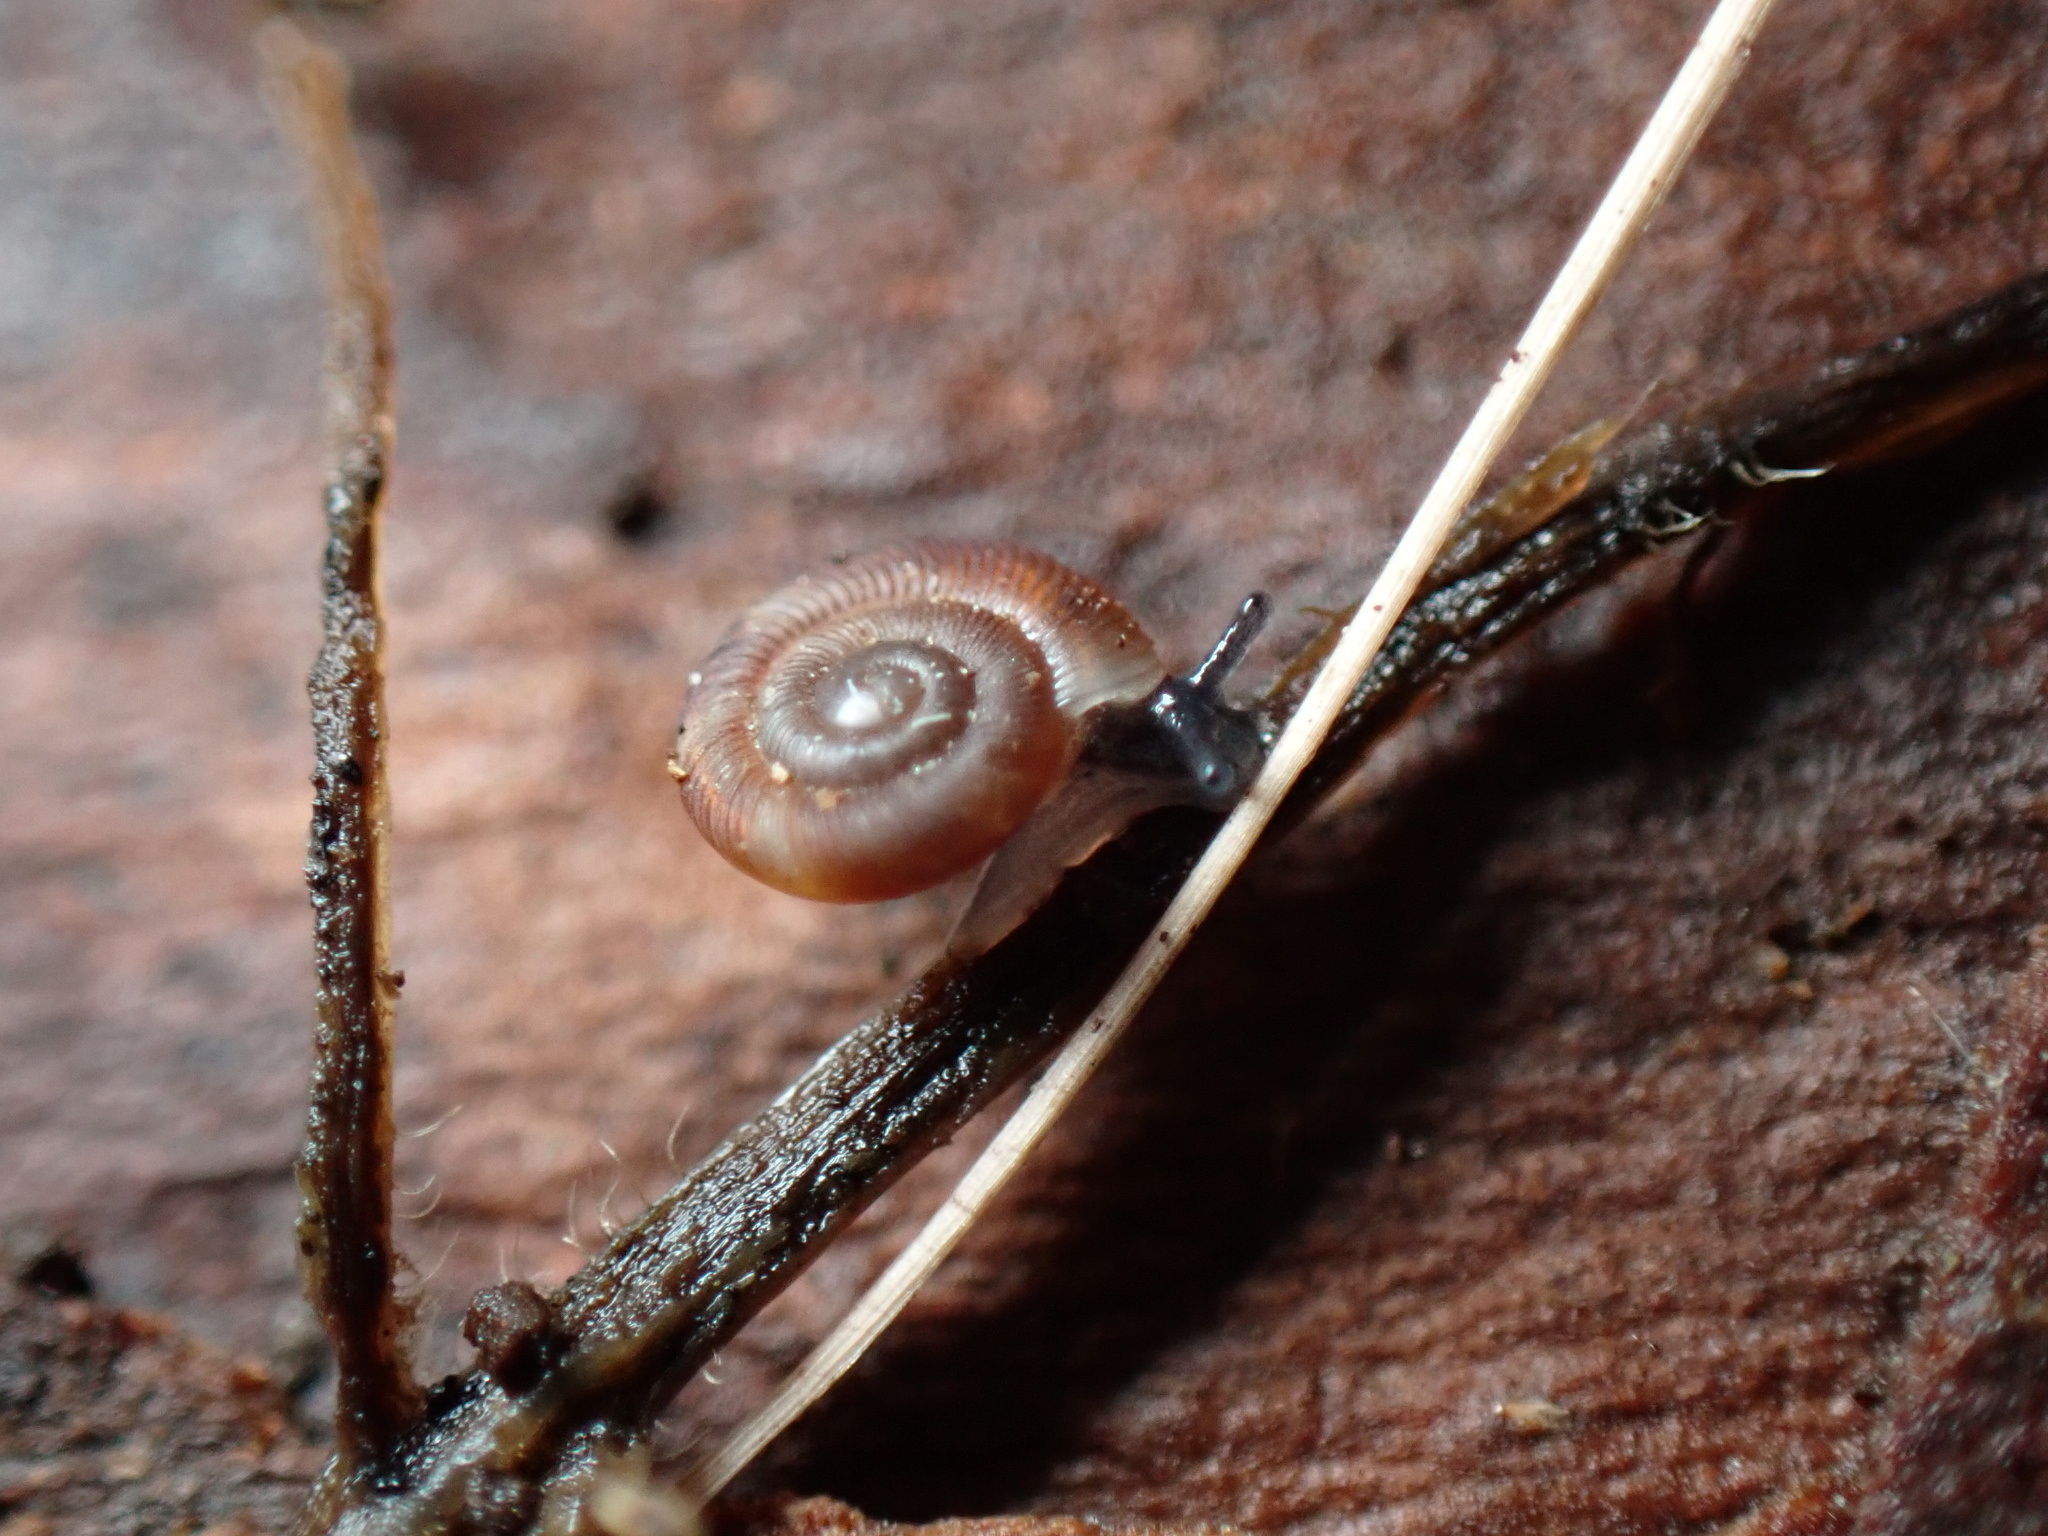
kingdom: Animalia
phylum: Mollusca
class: Gastropoda
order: Stylommatophora
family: Discidae
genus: Discus
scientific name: Discus rotundatus
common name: Rounded snail
